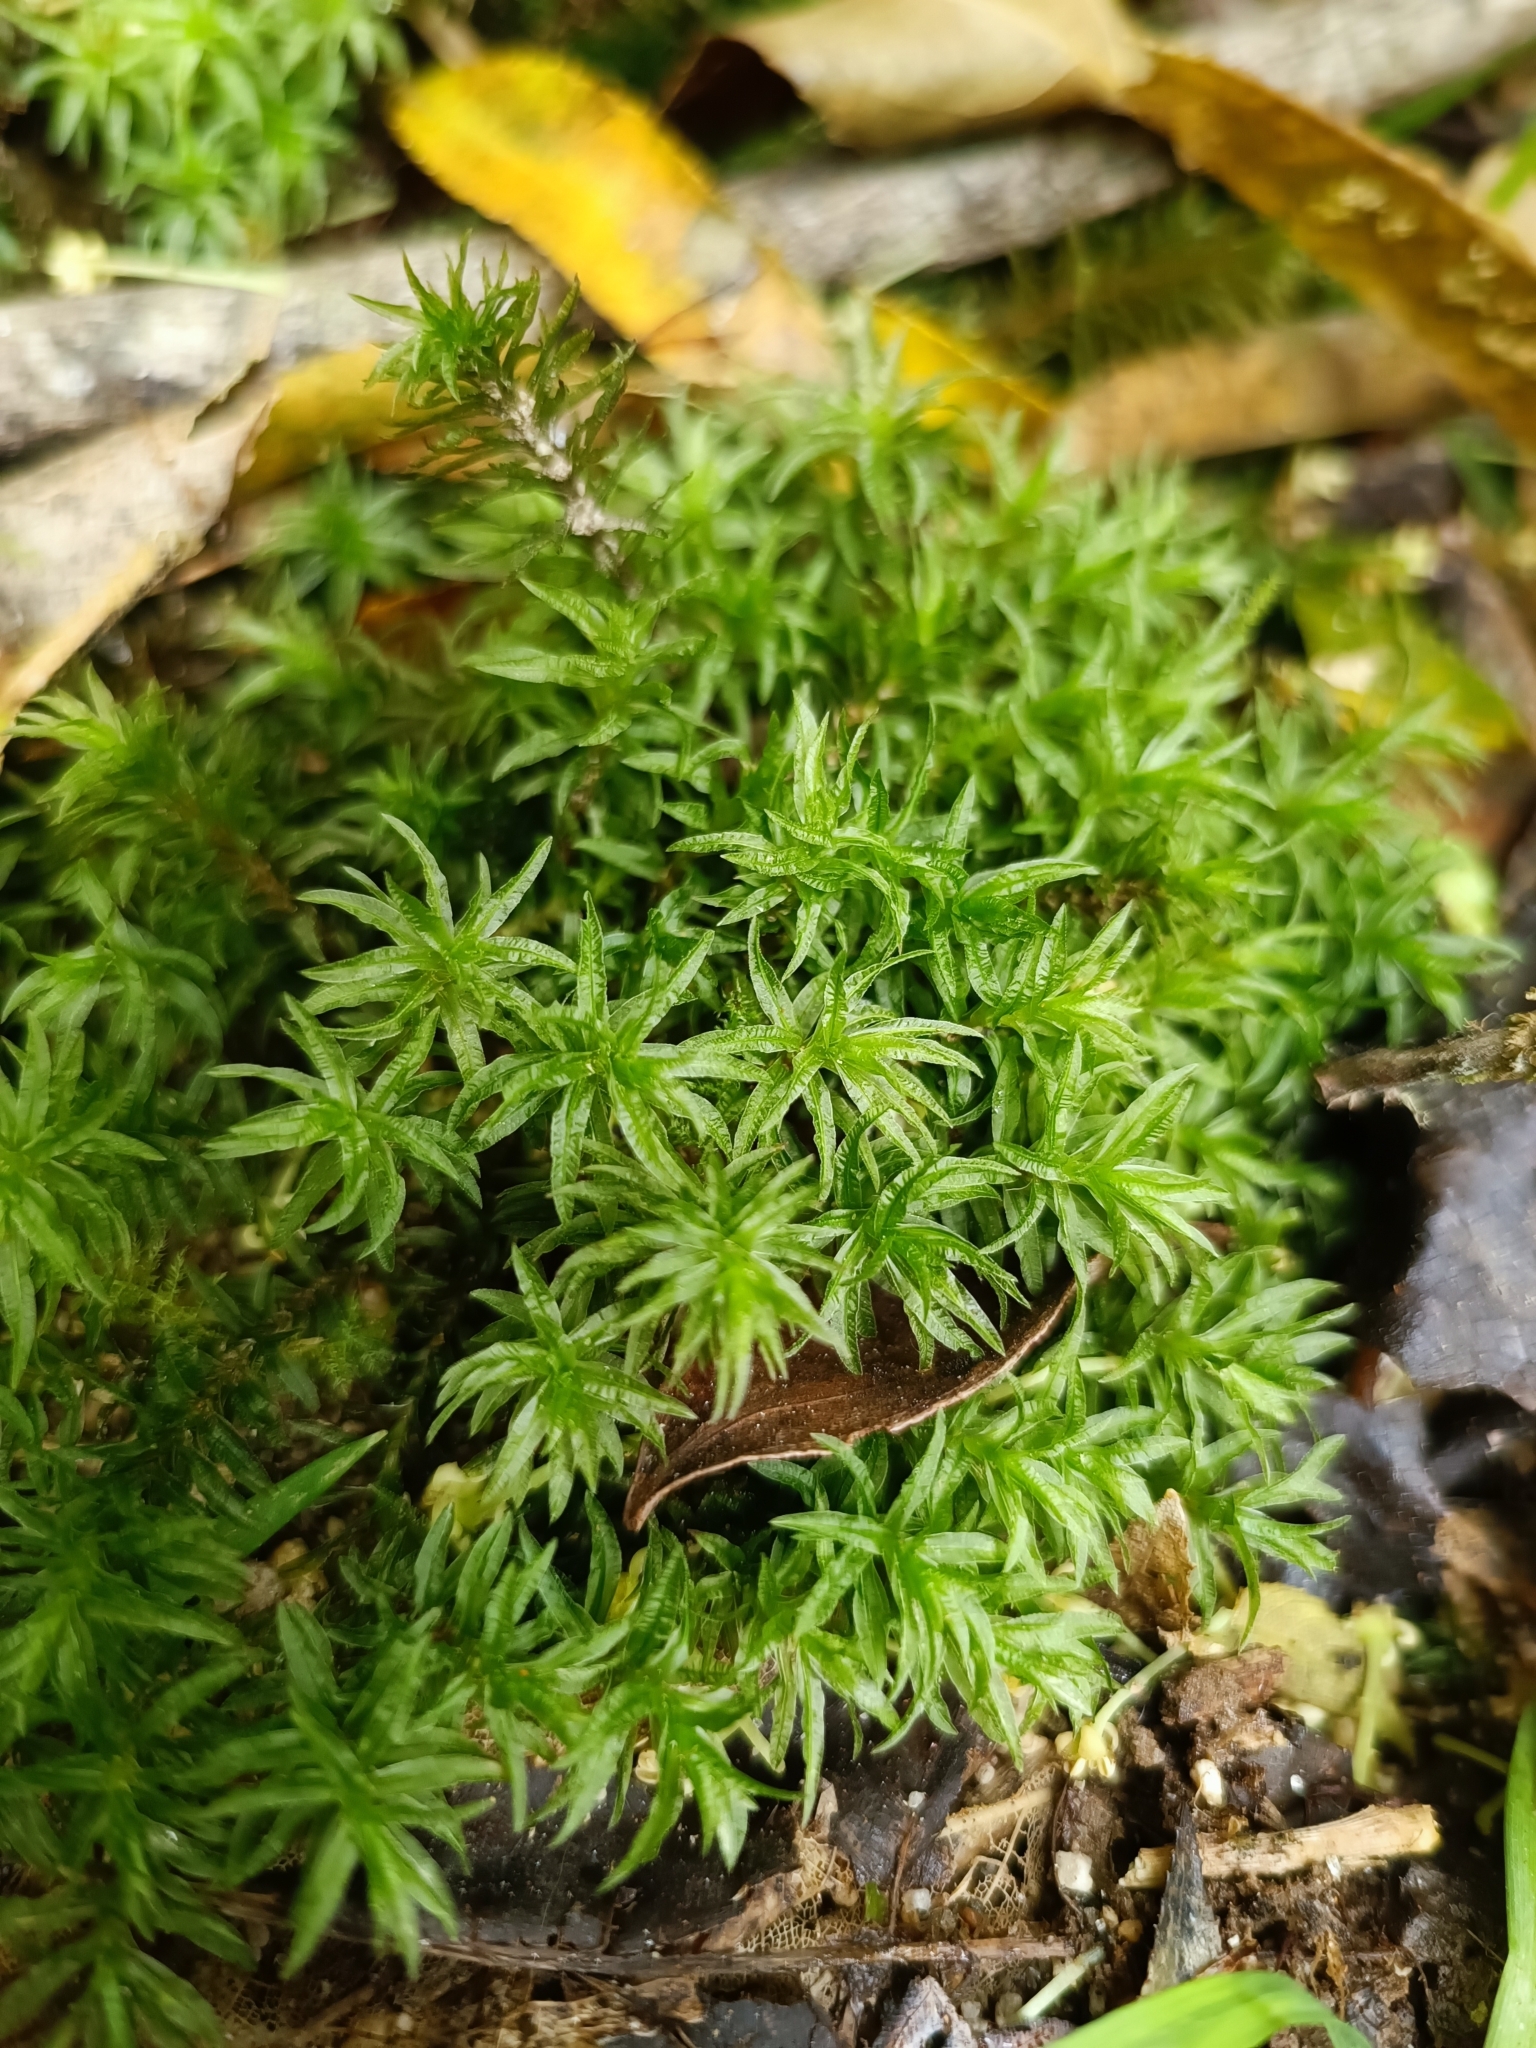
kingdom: Plantae
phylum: Bryophyta
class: Polytrichopsida
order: Polytrichales
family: Polytrichaceae
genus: Atrichum
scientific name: Atrichum androgynum
